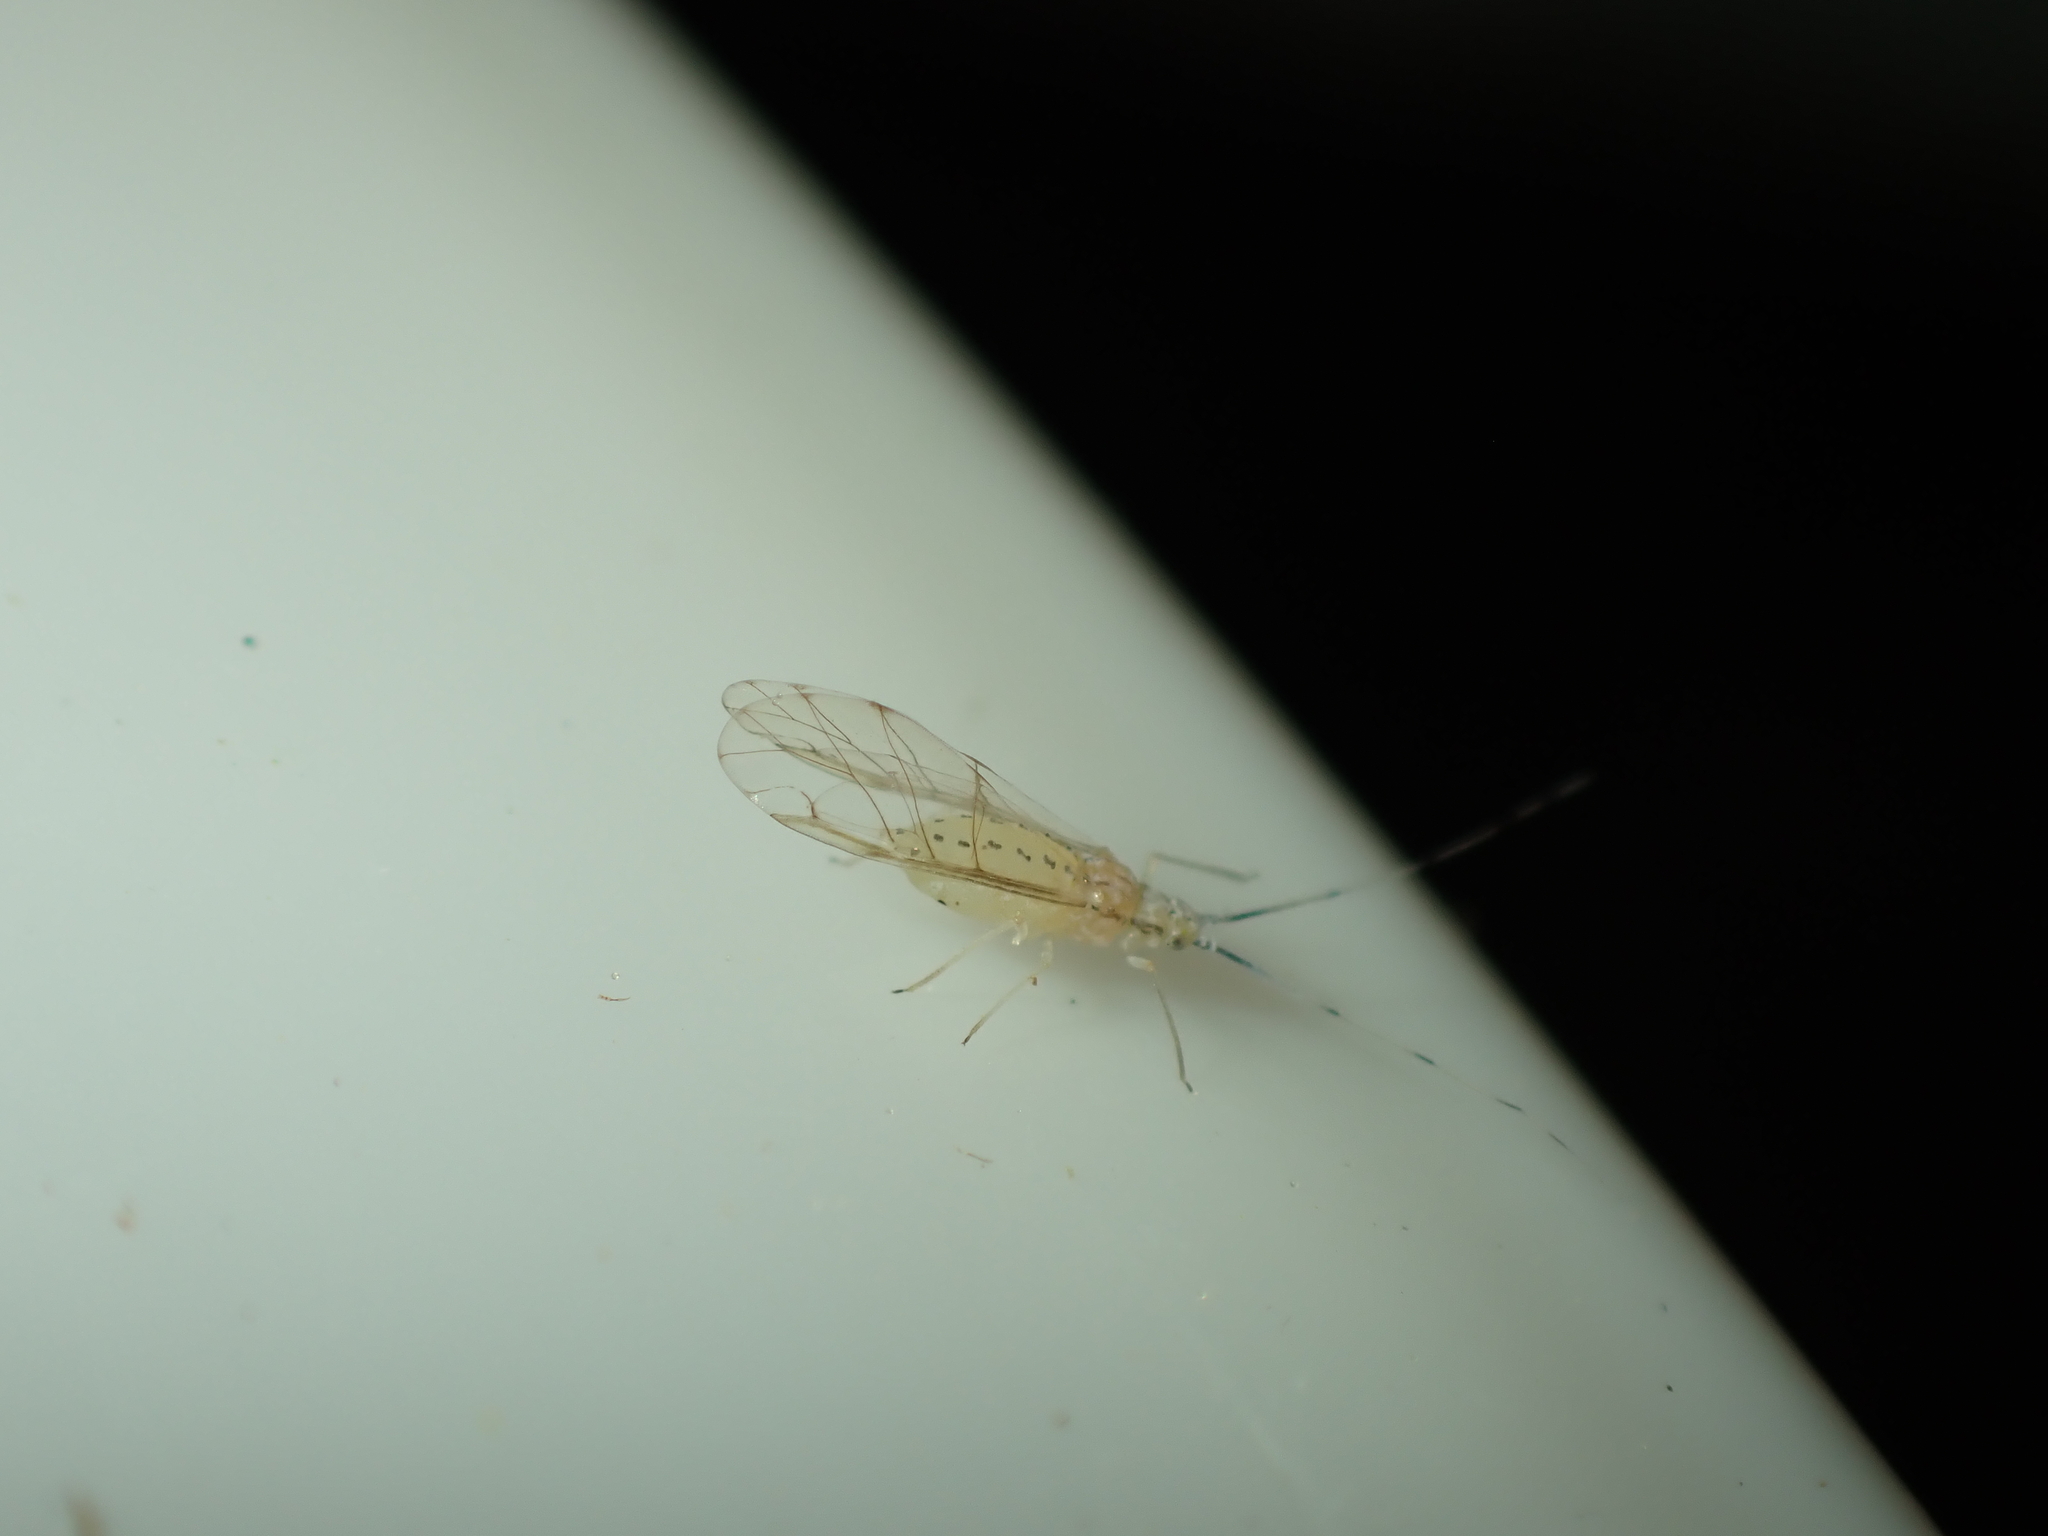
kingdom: Animalia
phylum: Arthropoda
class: Insecta
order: Hemiptera
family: Aphididae
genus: Takecallis
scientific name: Takecallis arundinariae
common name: Black-tailed bamboo aphid
